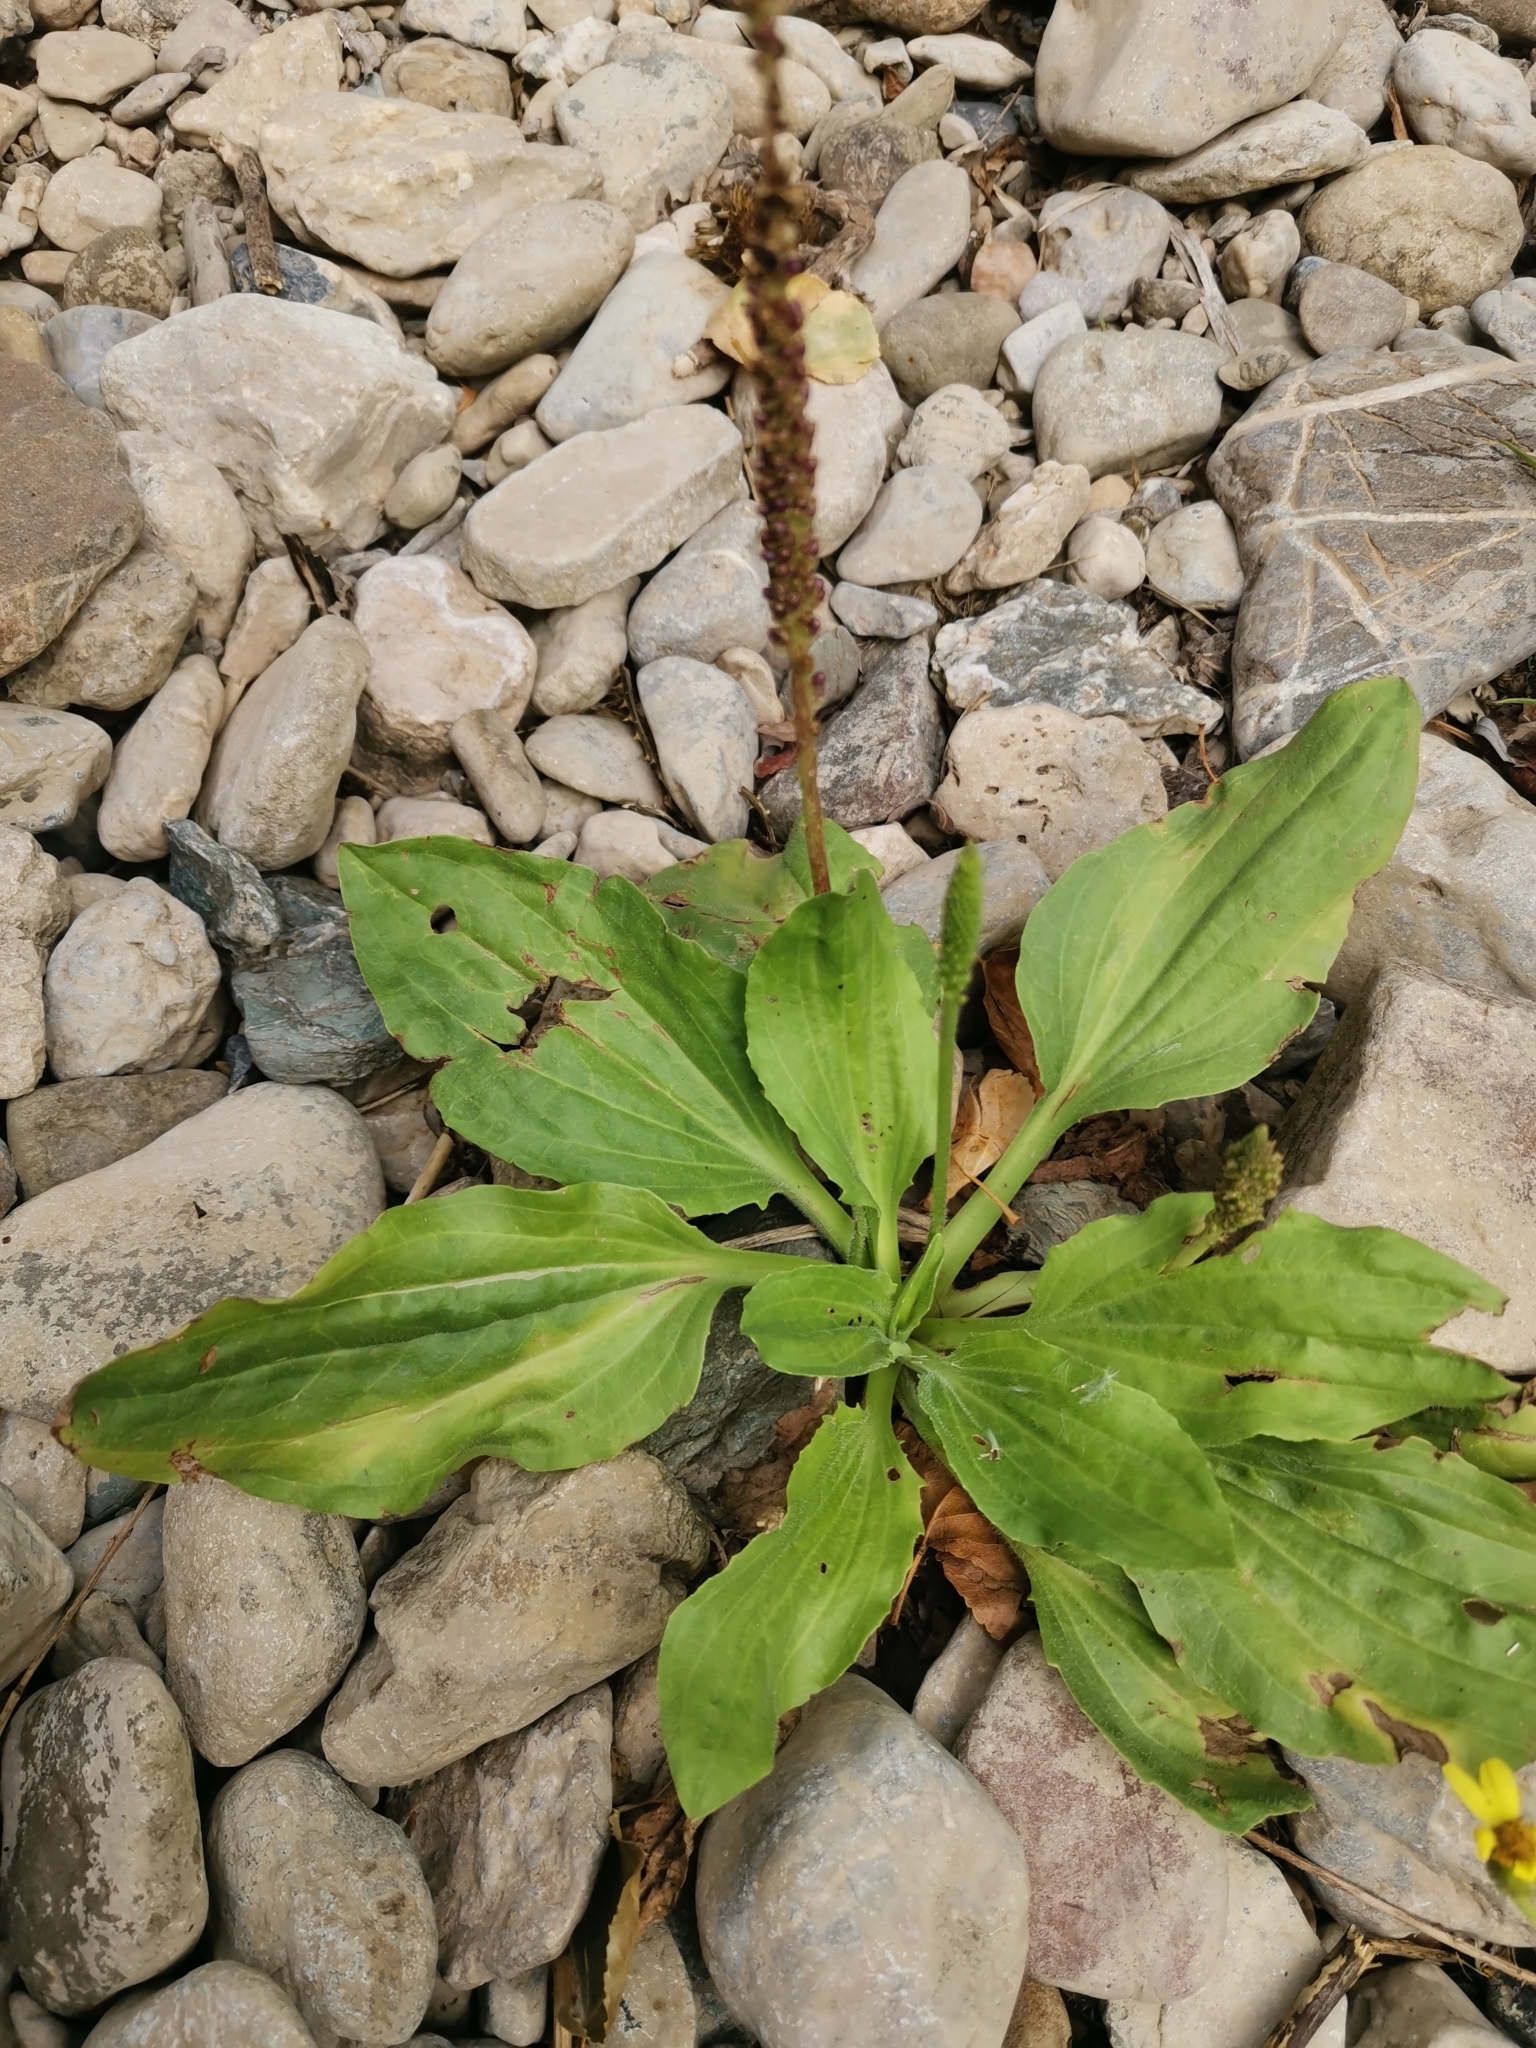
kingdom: Plantae
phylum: Tracheophyta
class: Magnoliopsida
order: Lamiales
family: Plantaginaceae
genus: Plantago
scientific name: Plantago major
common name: Common plantain
